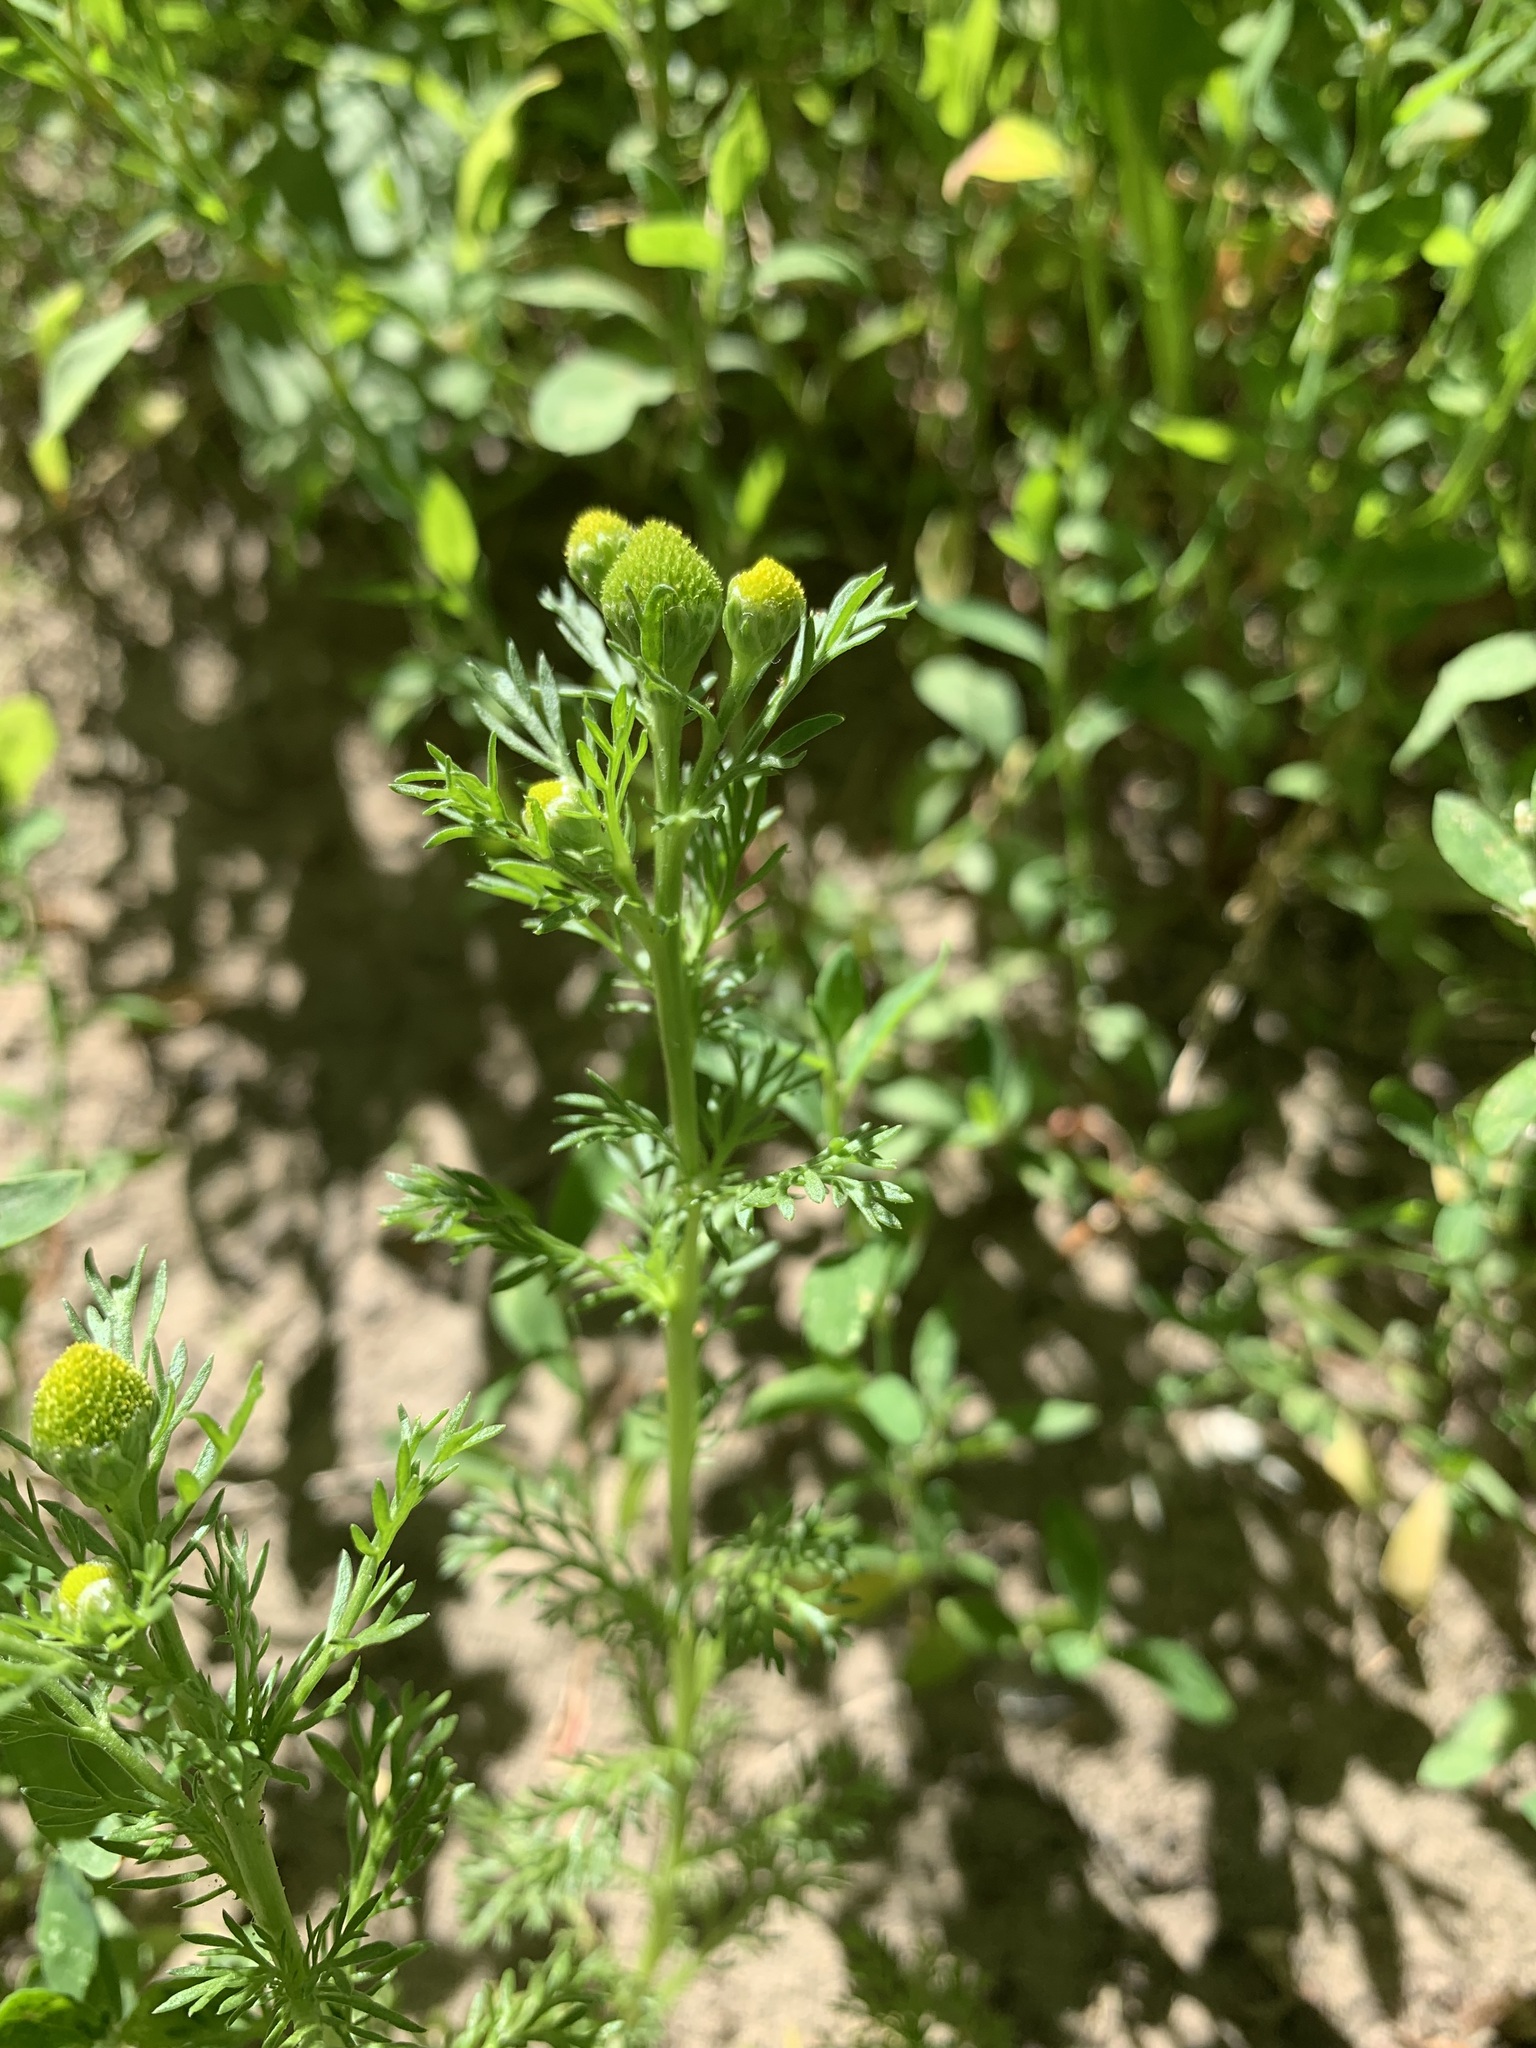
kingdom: Plantae
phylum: Tracheophyta
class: Magnoliopsida
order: Asterales
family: Asteraceae
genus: Matricaria
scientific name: Matricaria discoidea
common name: Disc mayweed
